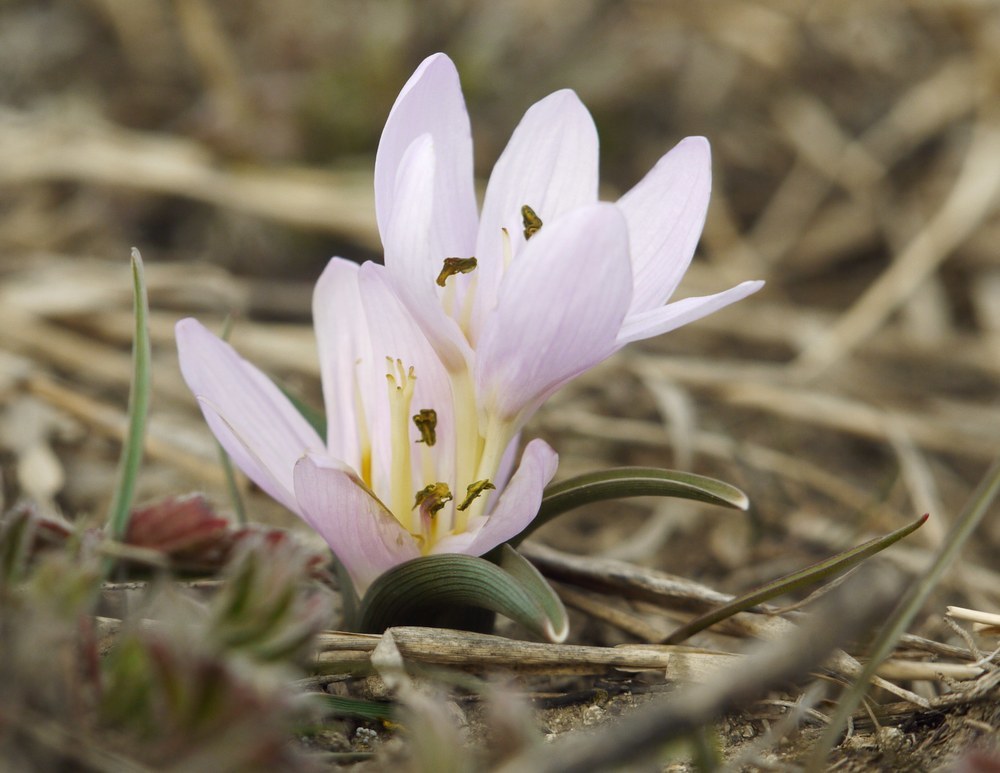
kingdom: Plantae
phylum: Tracheophyta
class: Liliopsida
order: Liliales
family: Colchicaceae
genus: Colchicum
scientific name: Colchicum bulbocodium
